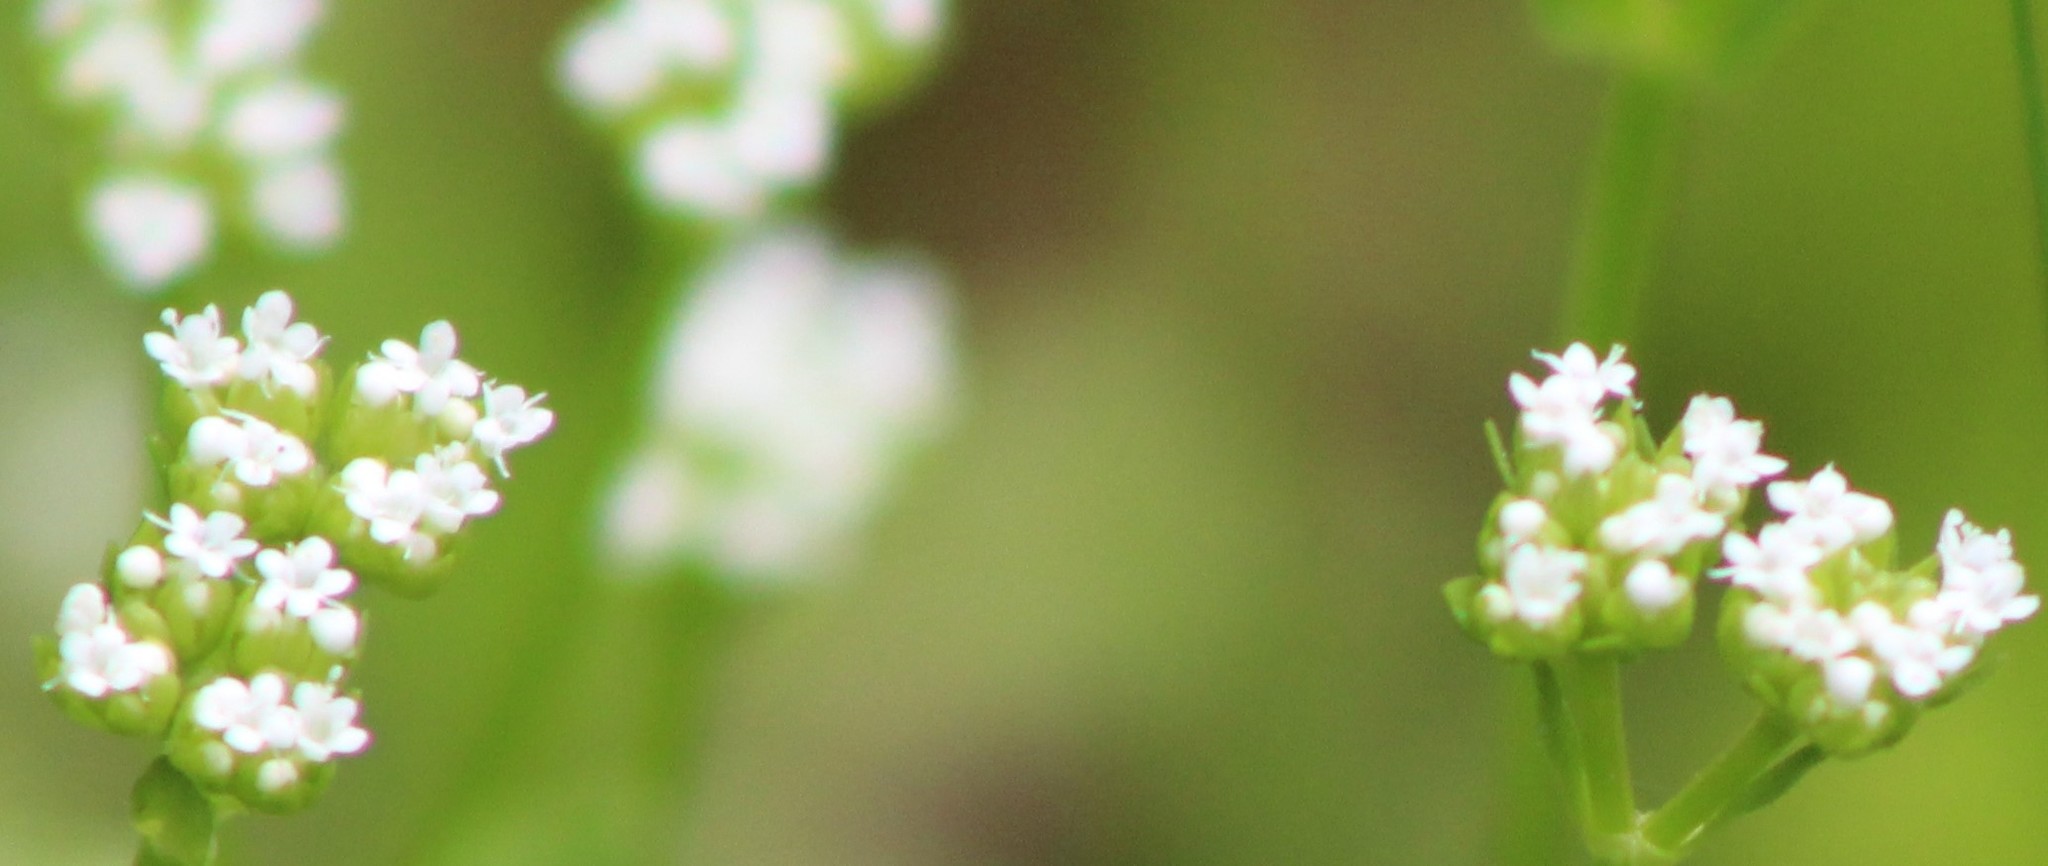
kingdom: Plantae
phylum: Tracheophyta
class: Magnoliopsida
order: Dipsacales
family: Caprifoliaceae
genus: Valerianella
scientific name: Valerianella radiata
